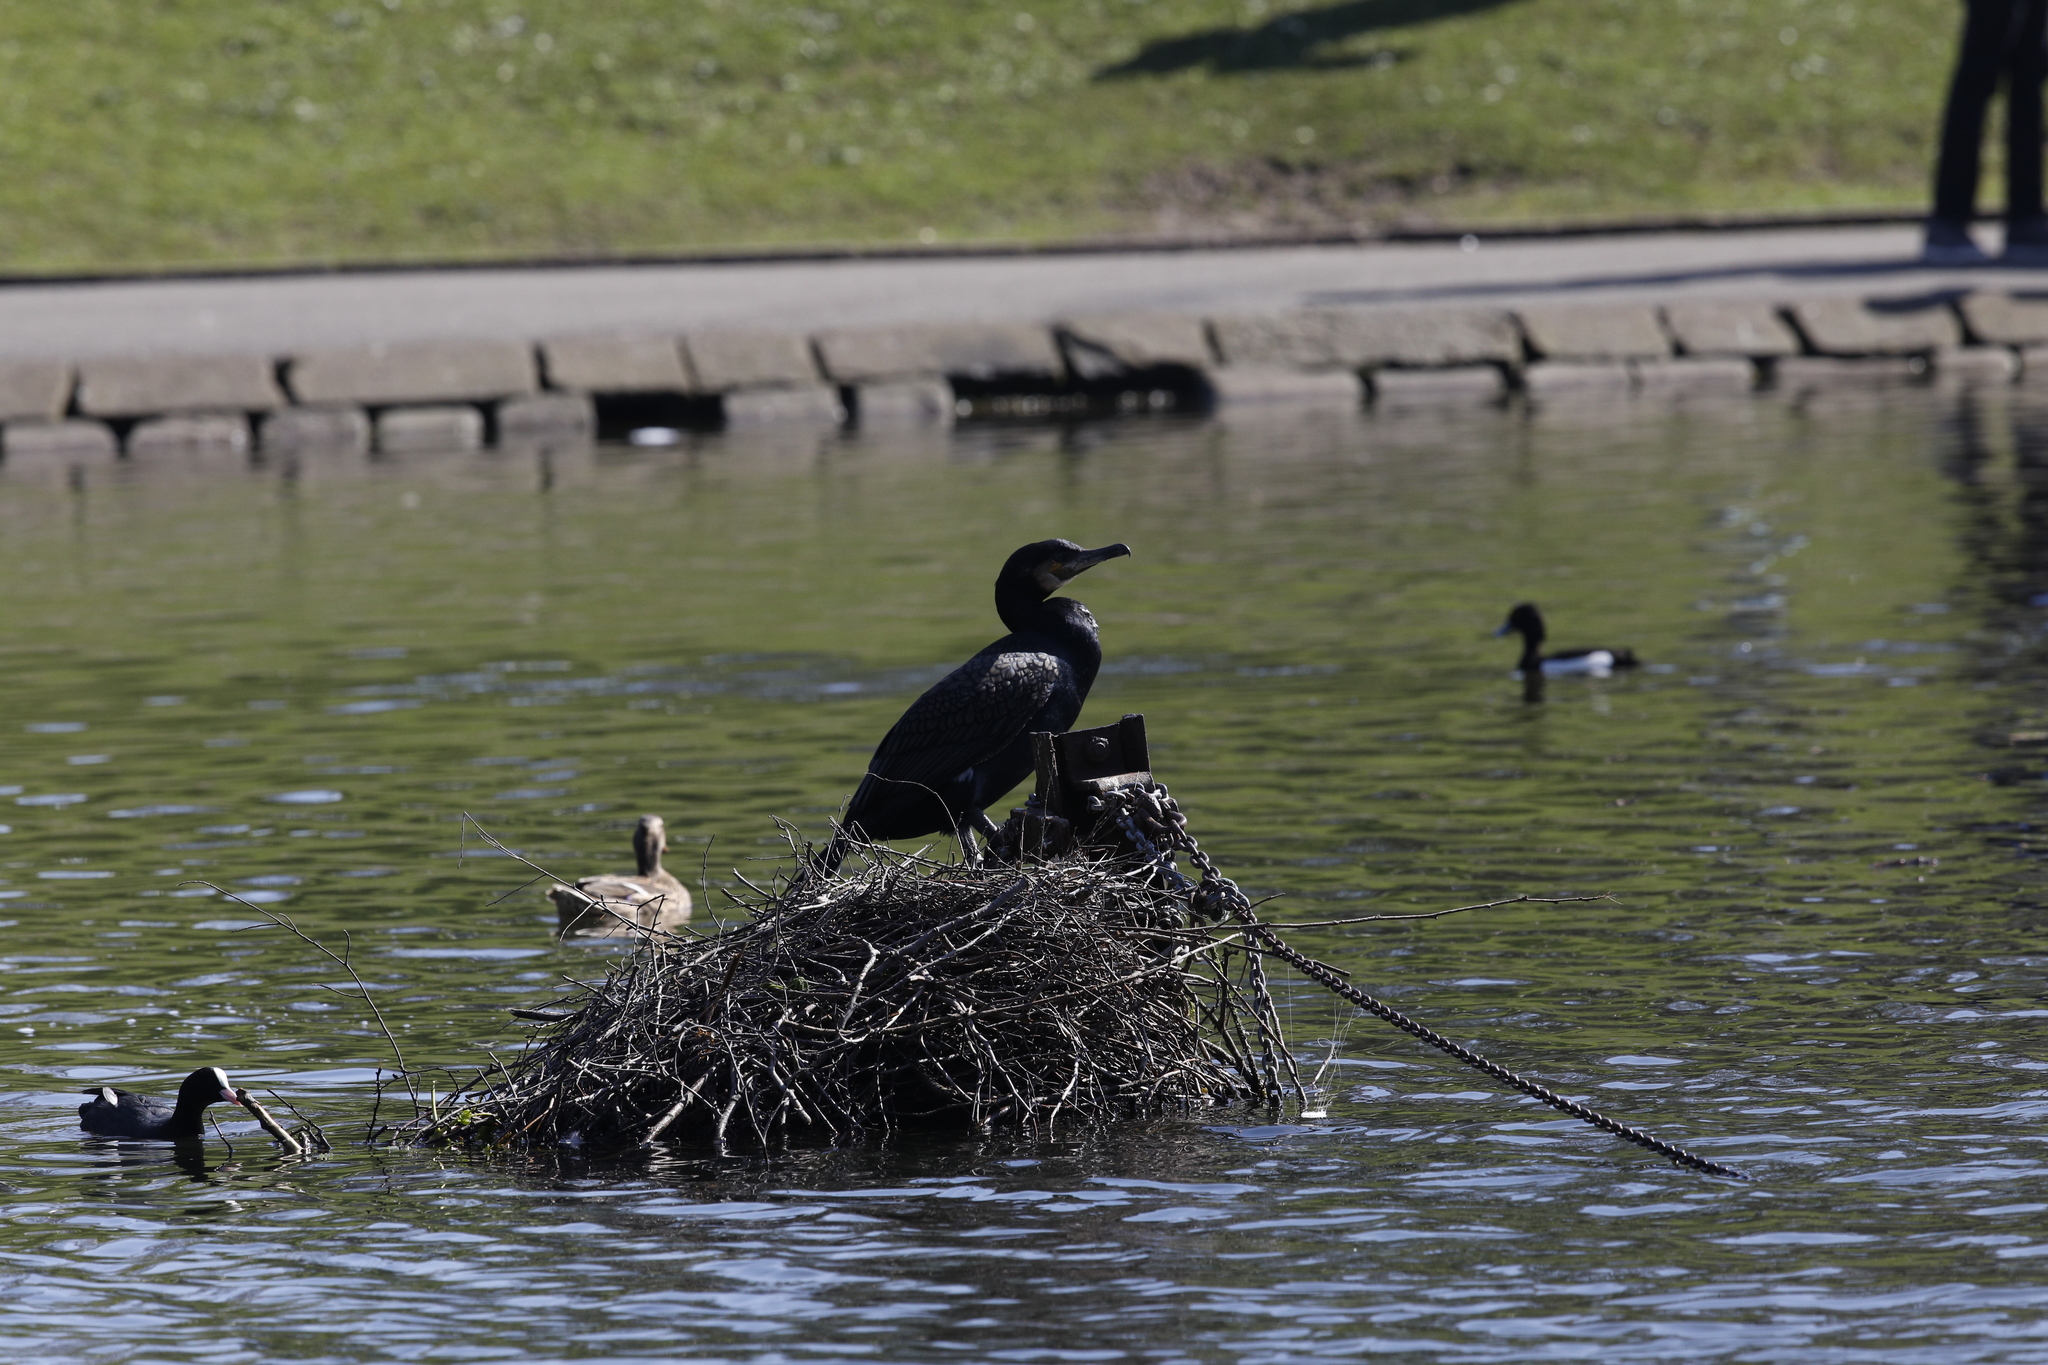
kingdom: Animalia
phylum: Chordata
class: Aves
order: Suliformes
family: Phalacrocoracidae
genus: Phalacrocorax
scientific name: Phalacrocorax carbo
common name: Great cormorant
